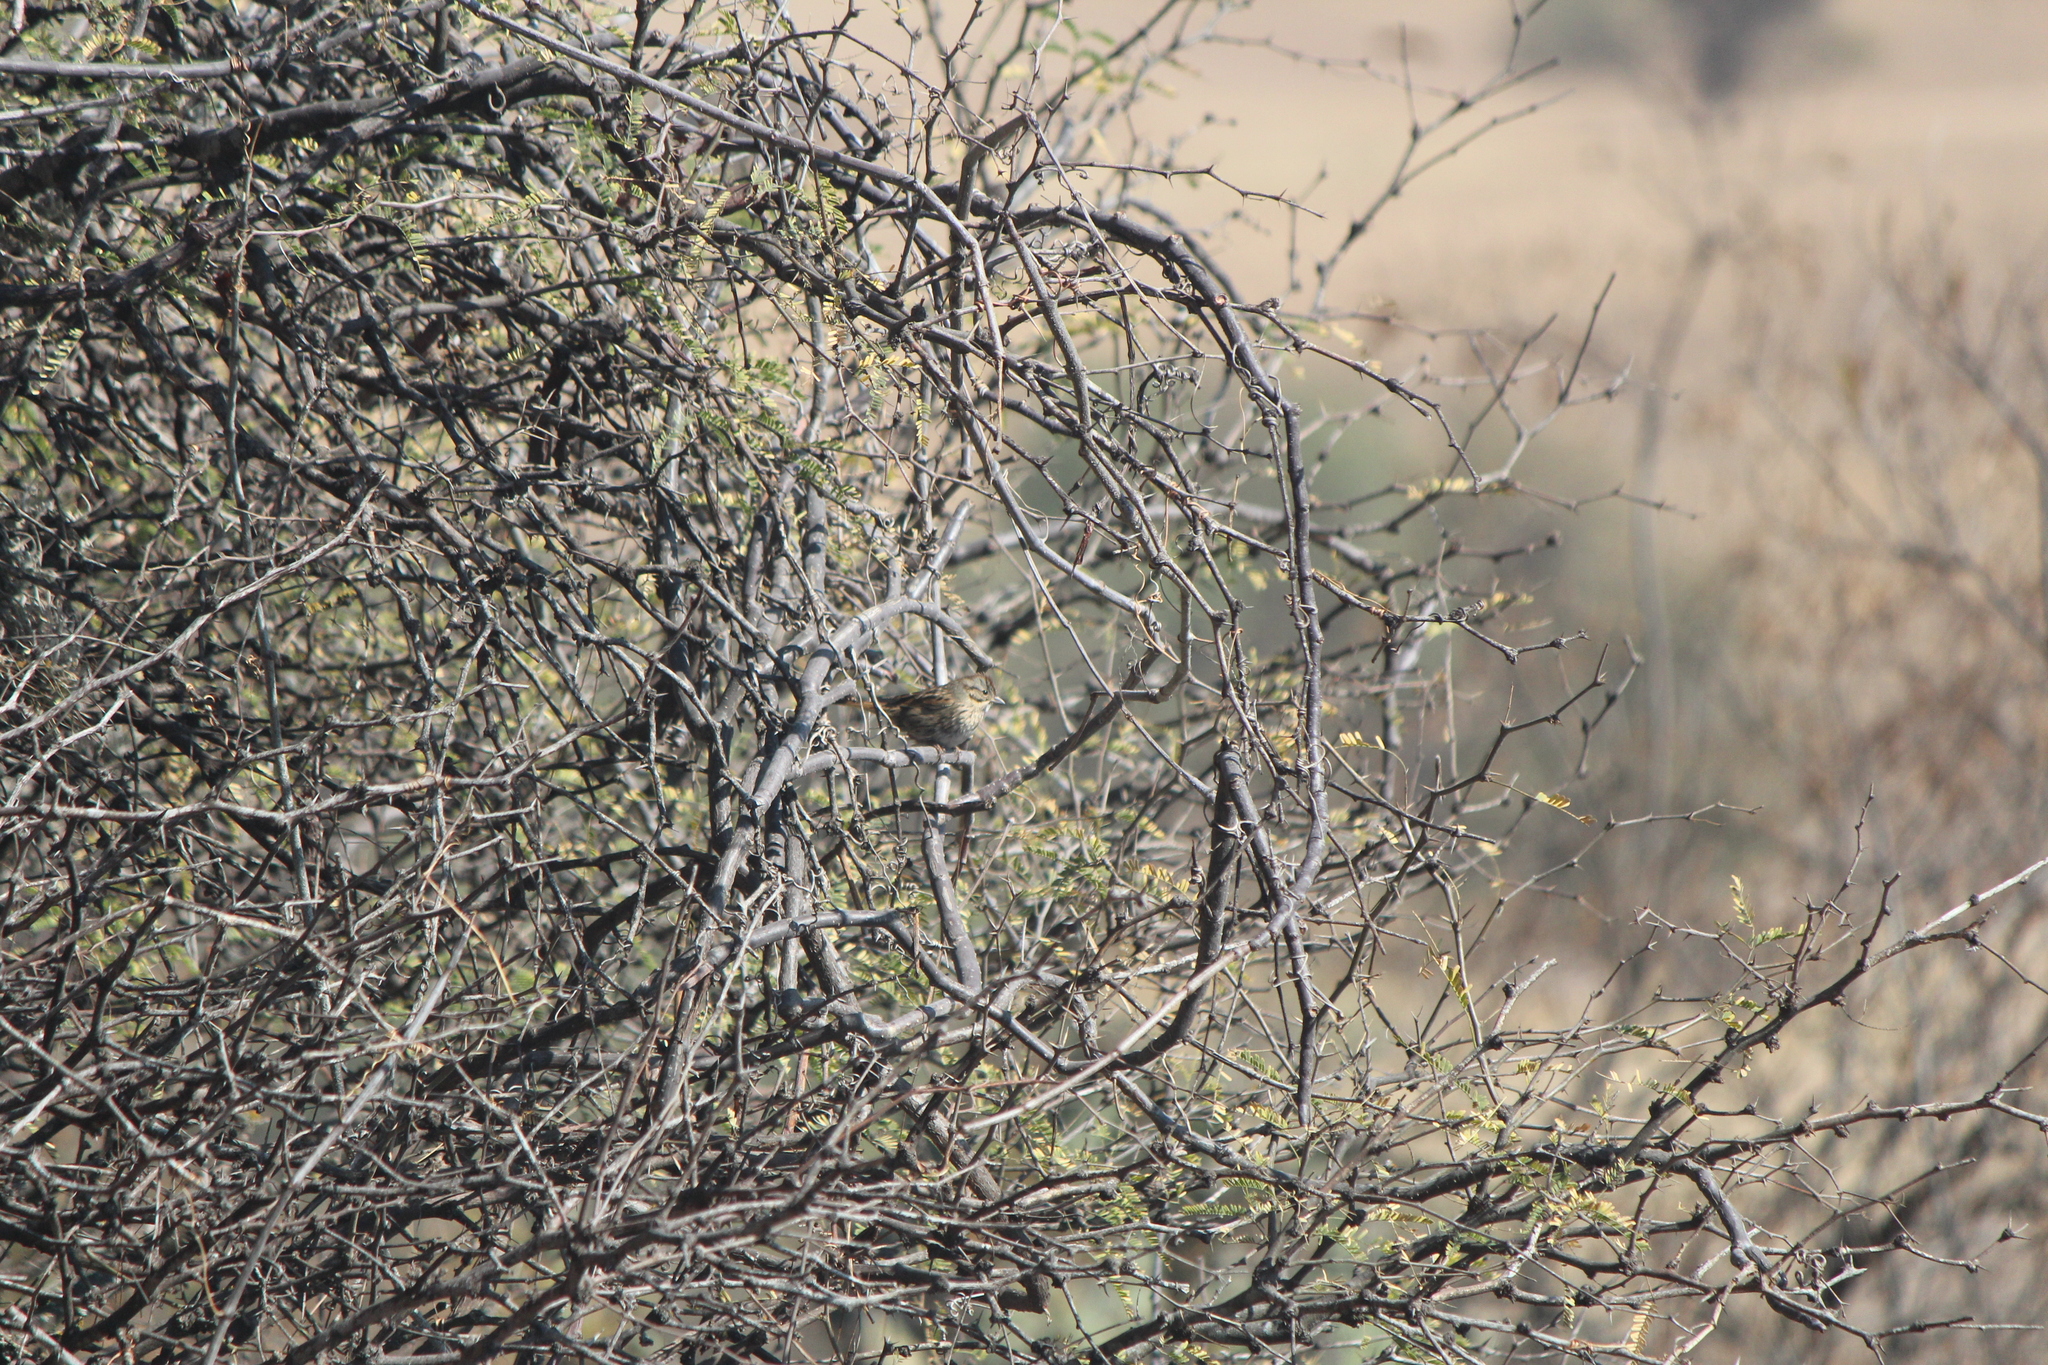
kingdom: Animalia
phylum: Chordata
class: Aves
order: Passeriformes
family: Passerellidae
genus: Melospiza
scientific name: Melospiza lincolnii
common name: Lincoln's sparrow
